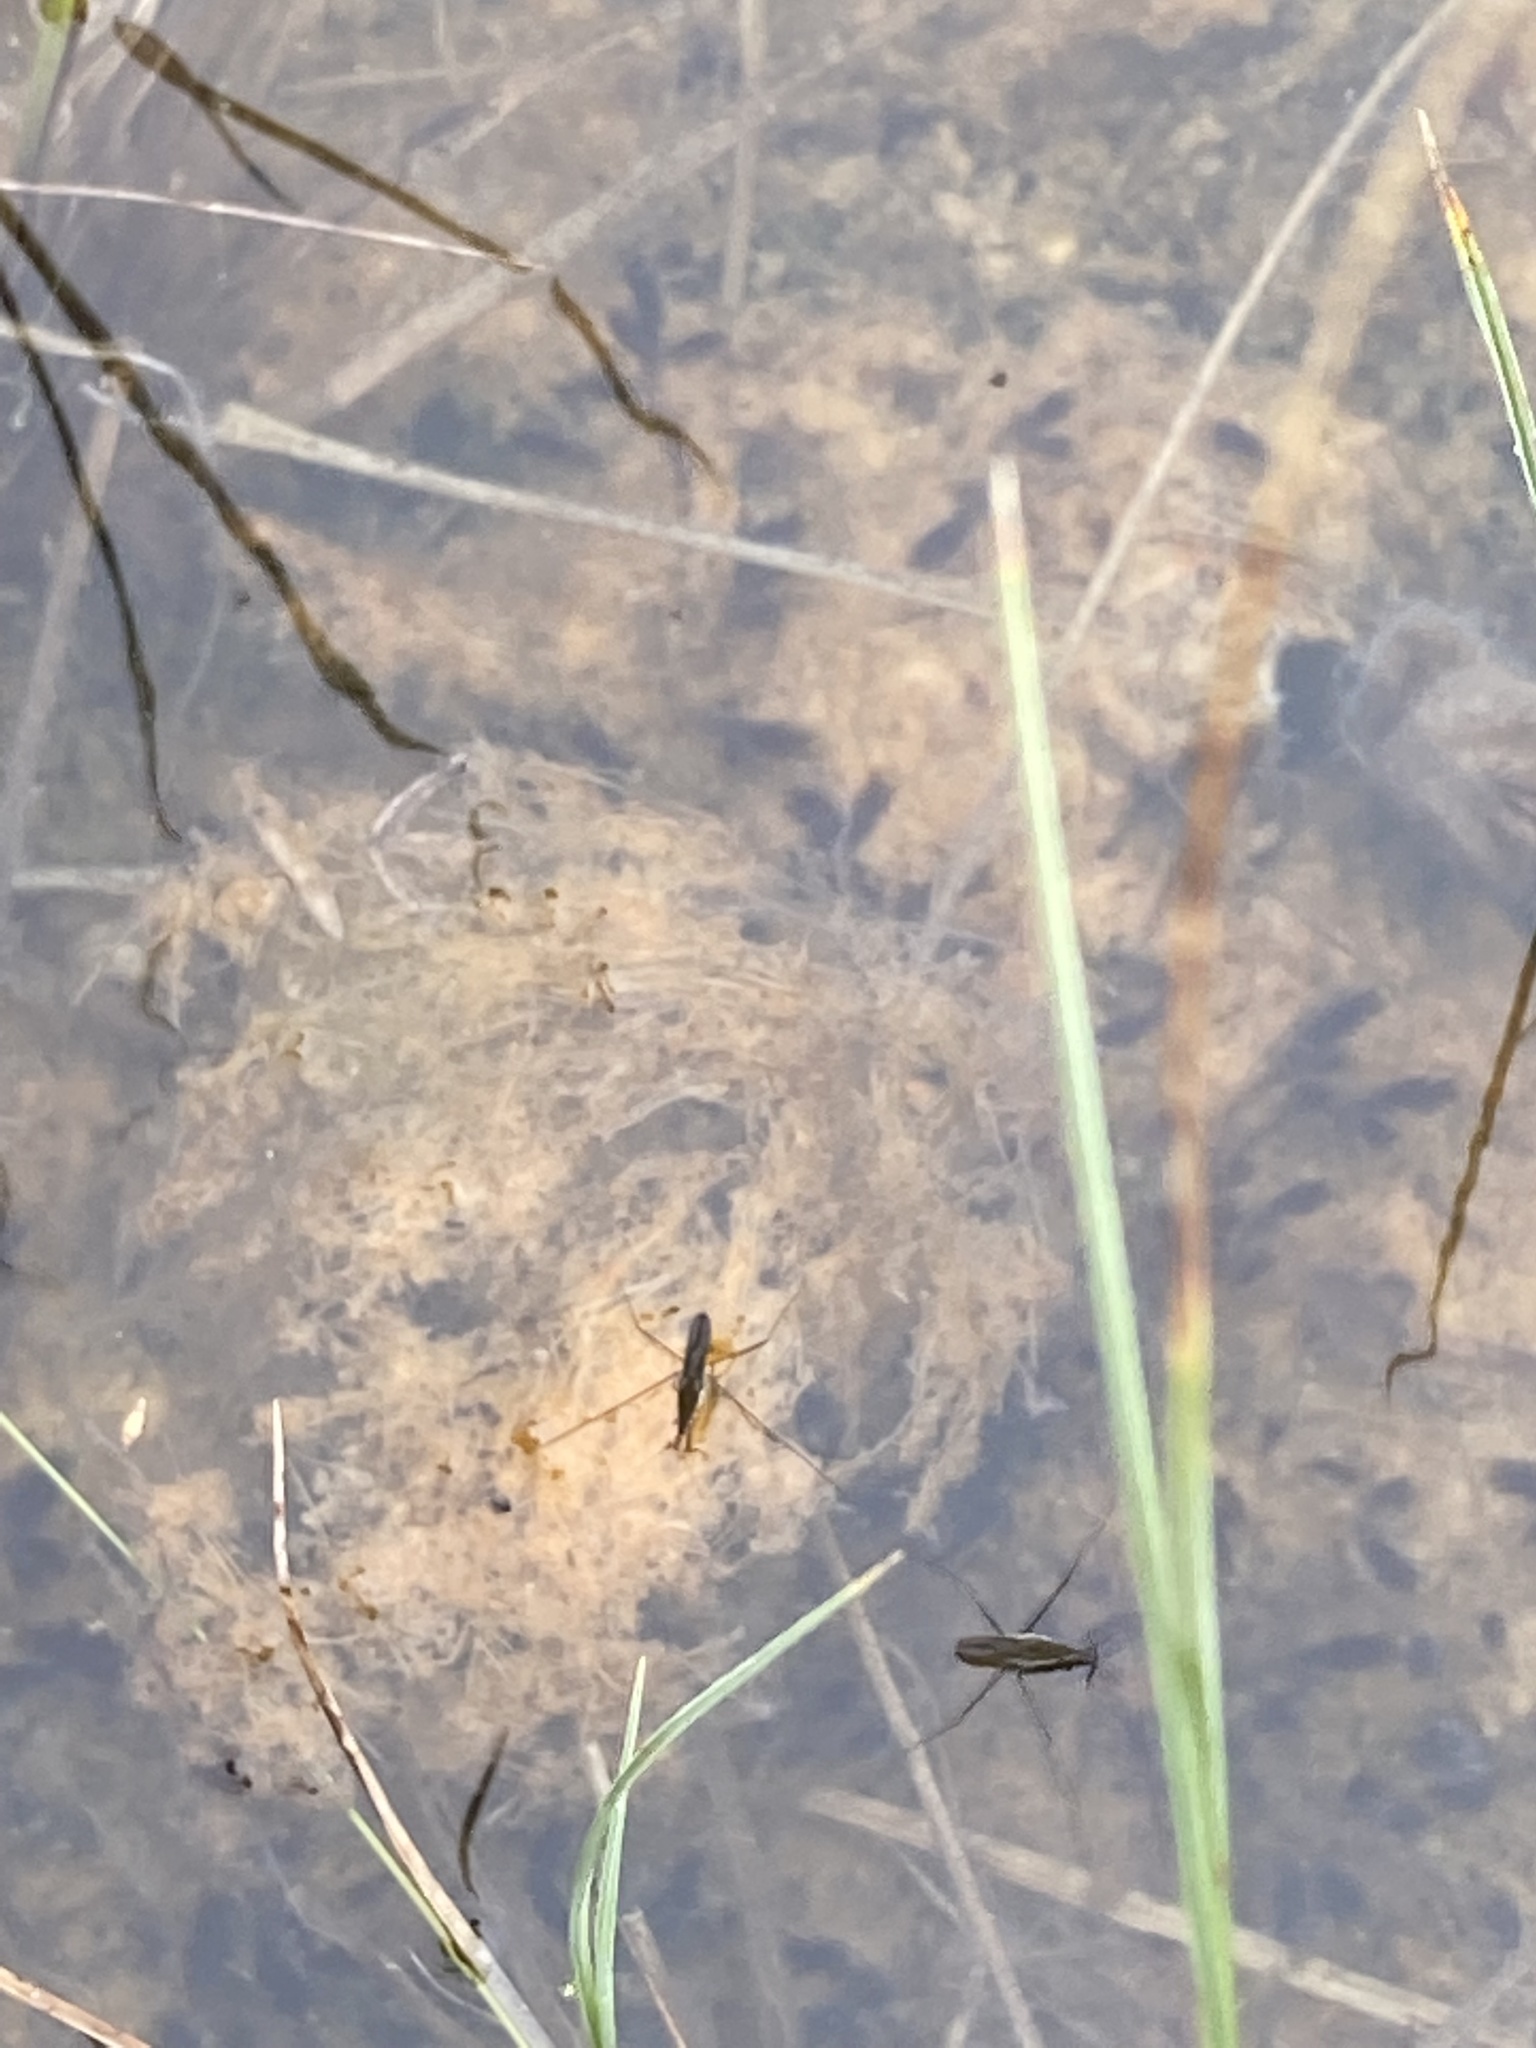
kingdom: Animalia
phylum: Arthropoda
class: Insecta
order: Hemiptera
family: Gerridae
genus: Gerris
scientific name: Gerris
